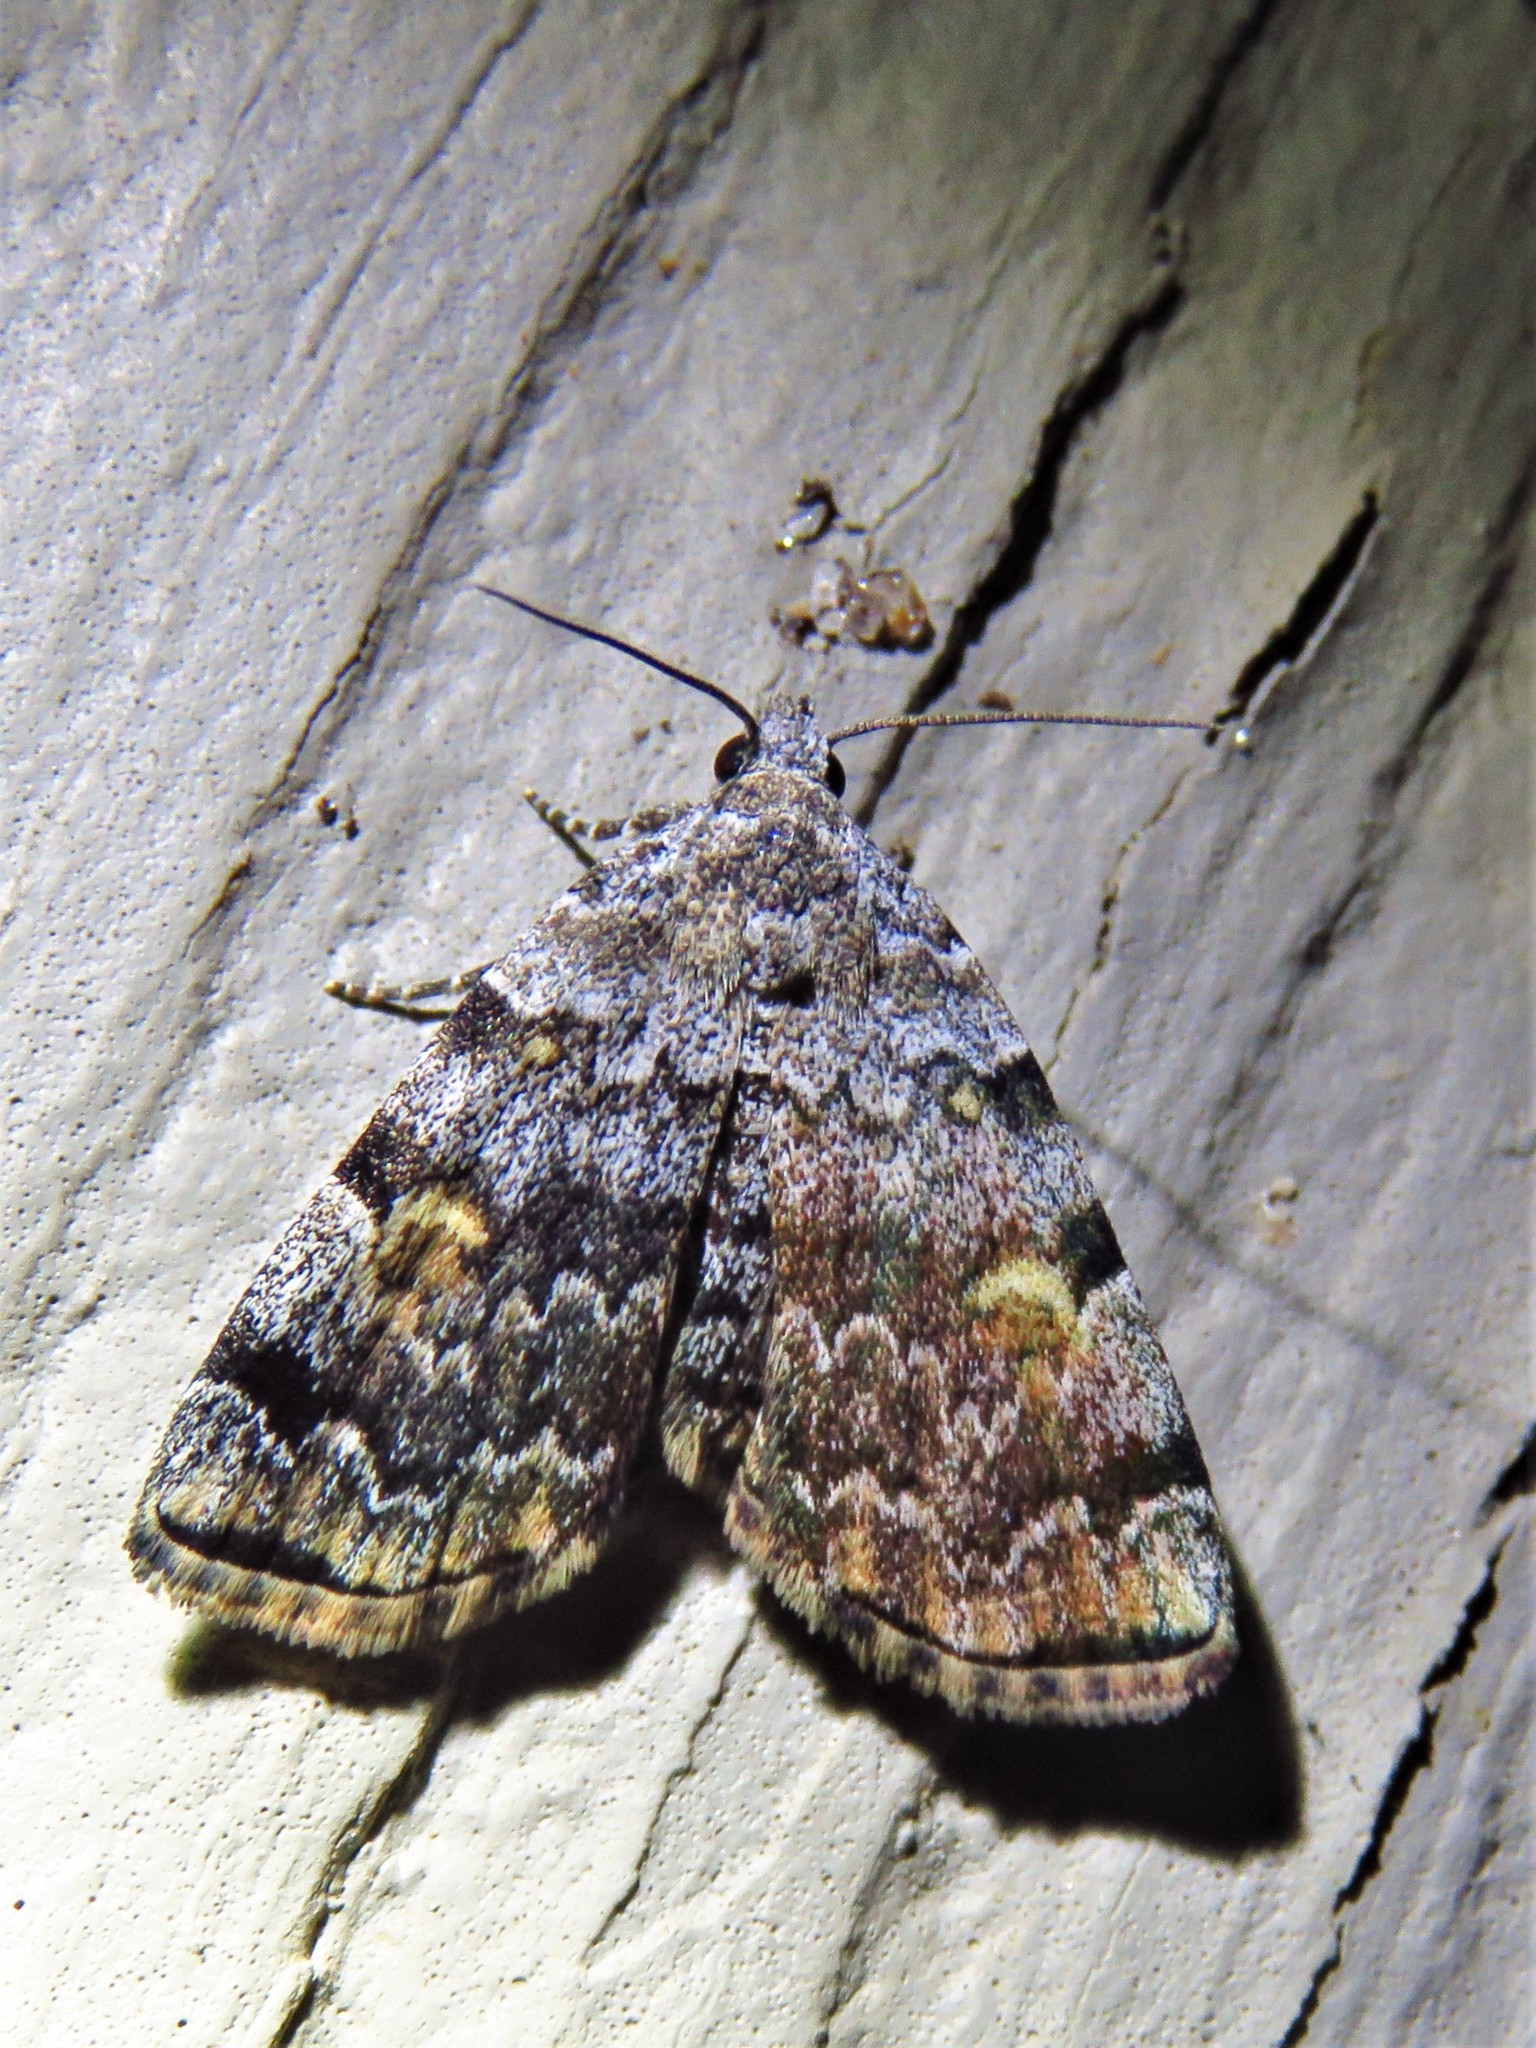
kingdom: Animalia
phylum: Arthropoda
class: Insecta
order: Lepidoptera
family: Erebidae
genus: Idia
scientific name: Idia americalis
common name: American idia moth
